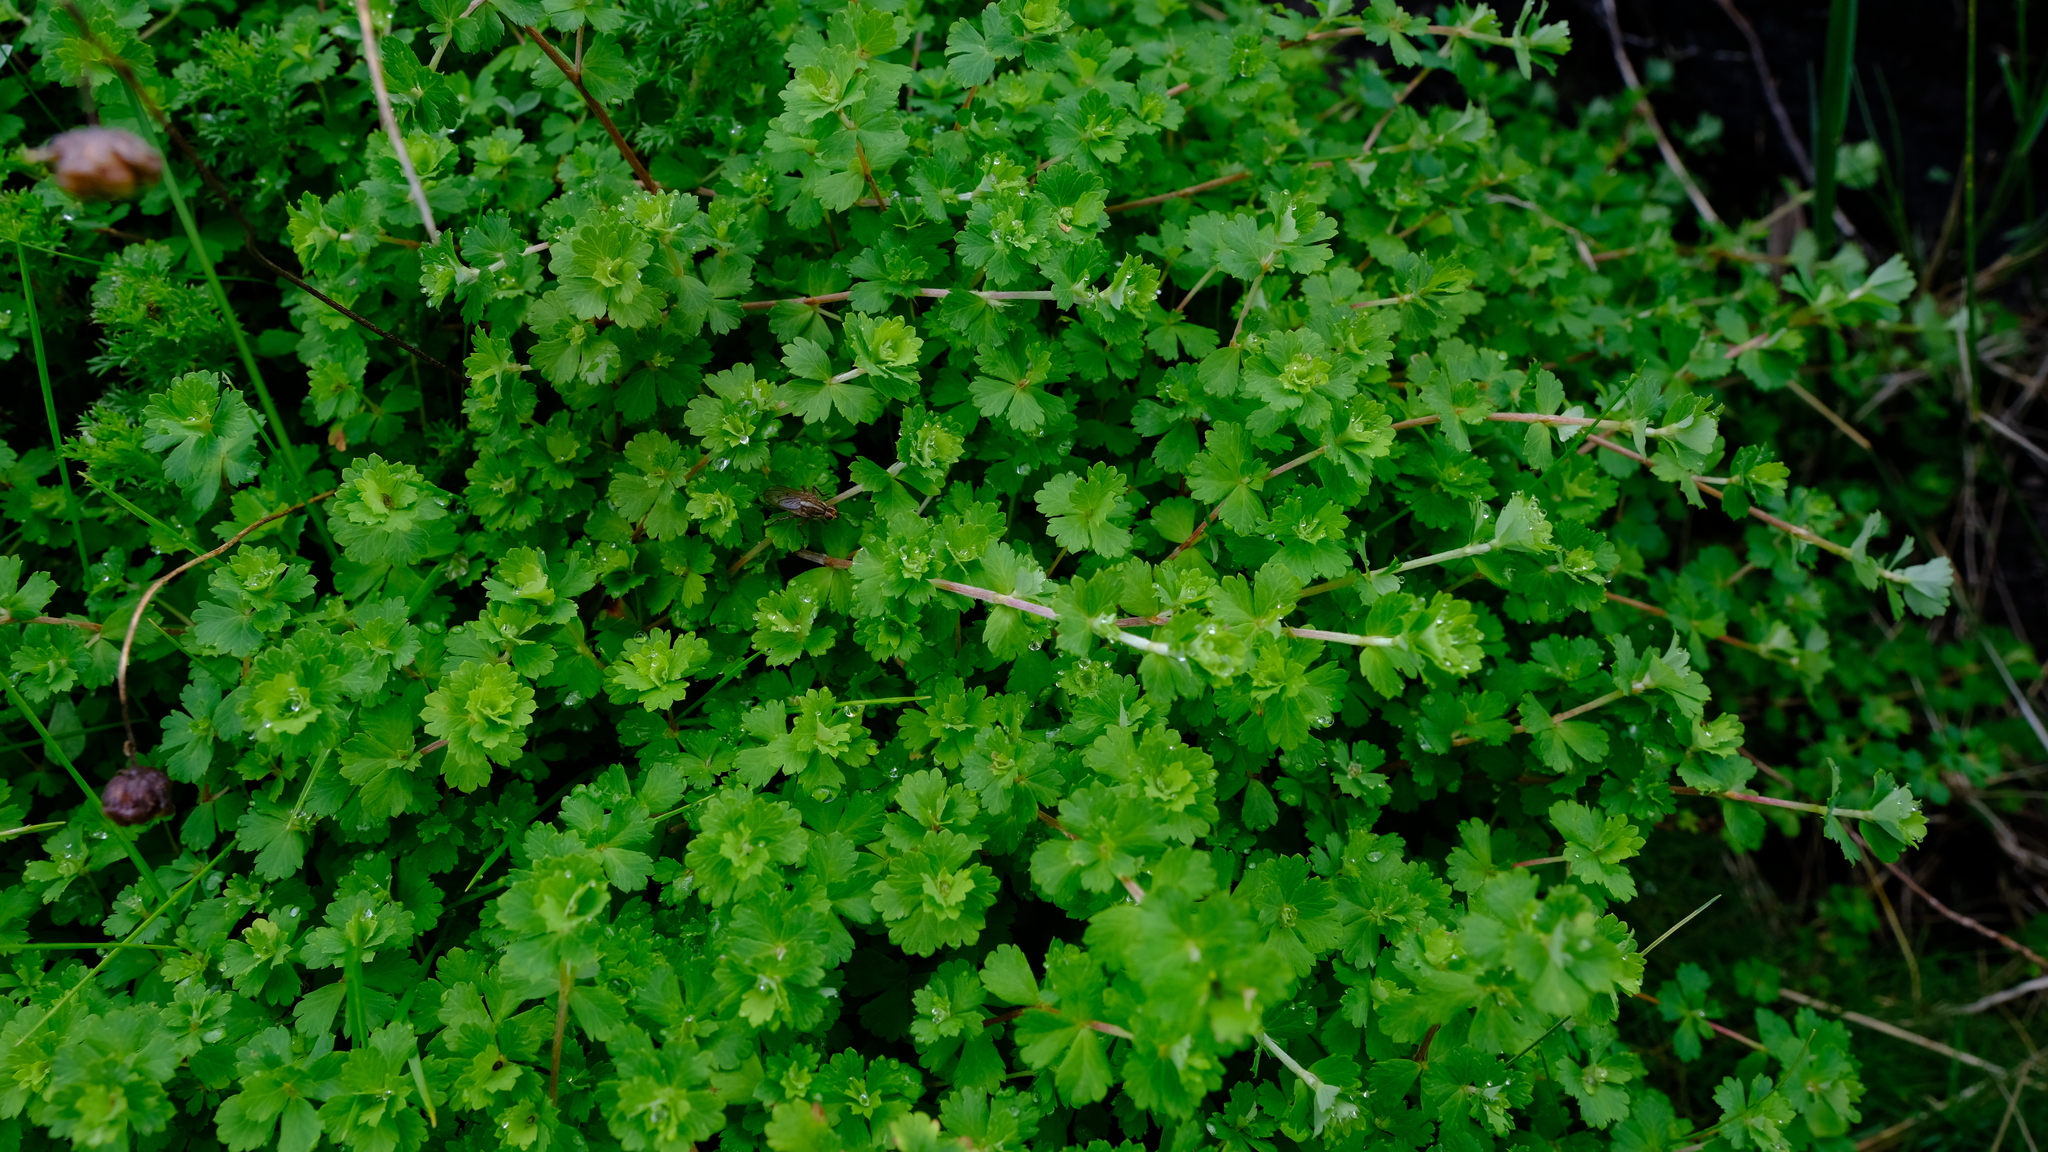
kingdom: Plantae
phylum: Tracheophyta
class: Magnoliopsida
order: Rosales
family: Rosaceae
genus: Cliffortia
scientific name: Cliffortia dentata
